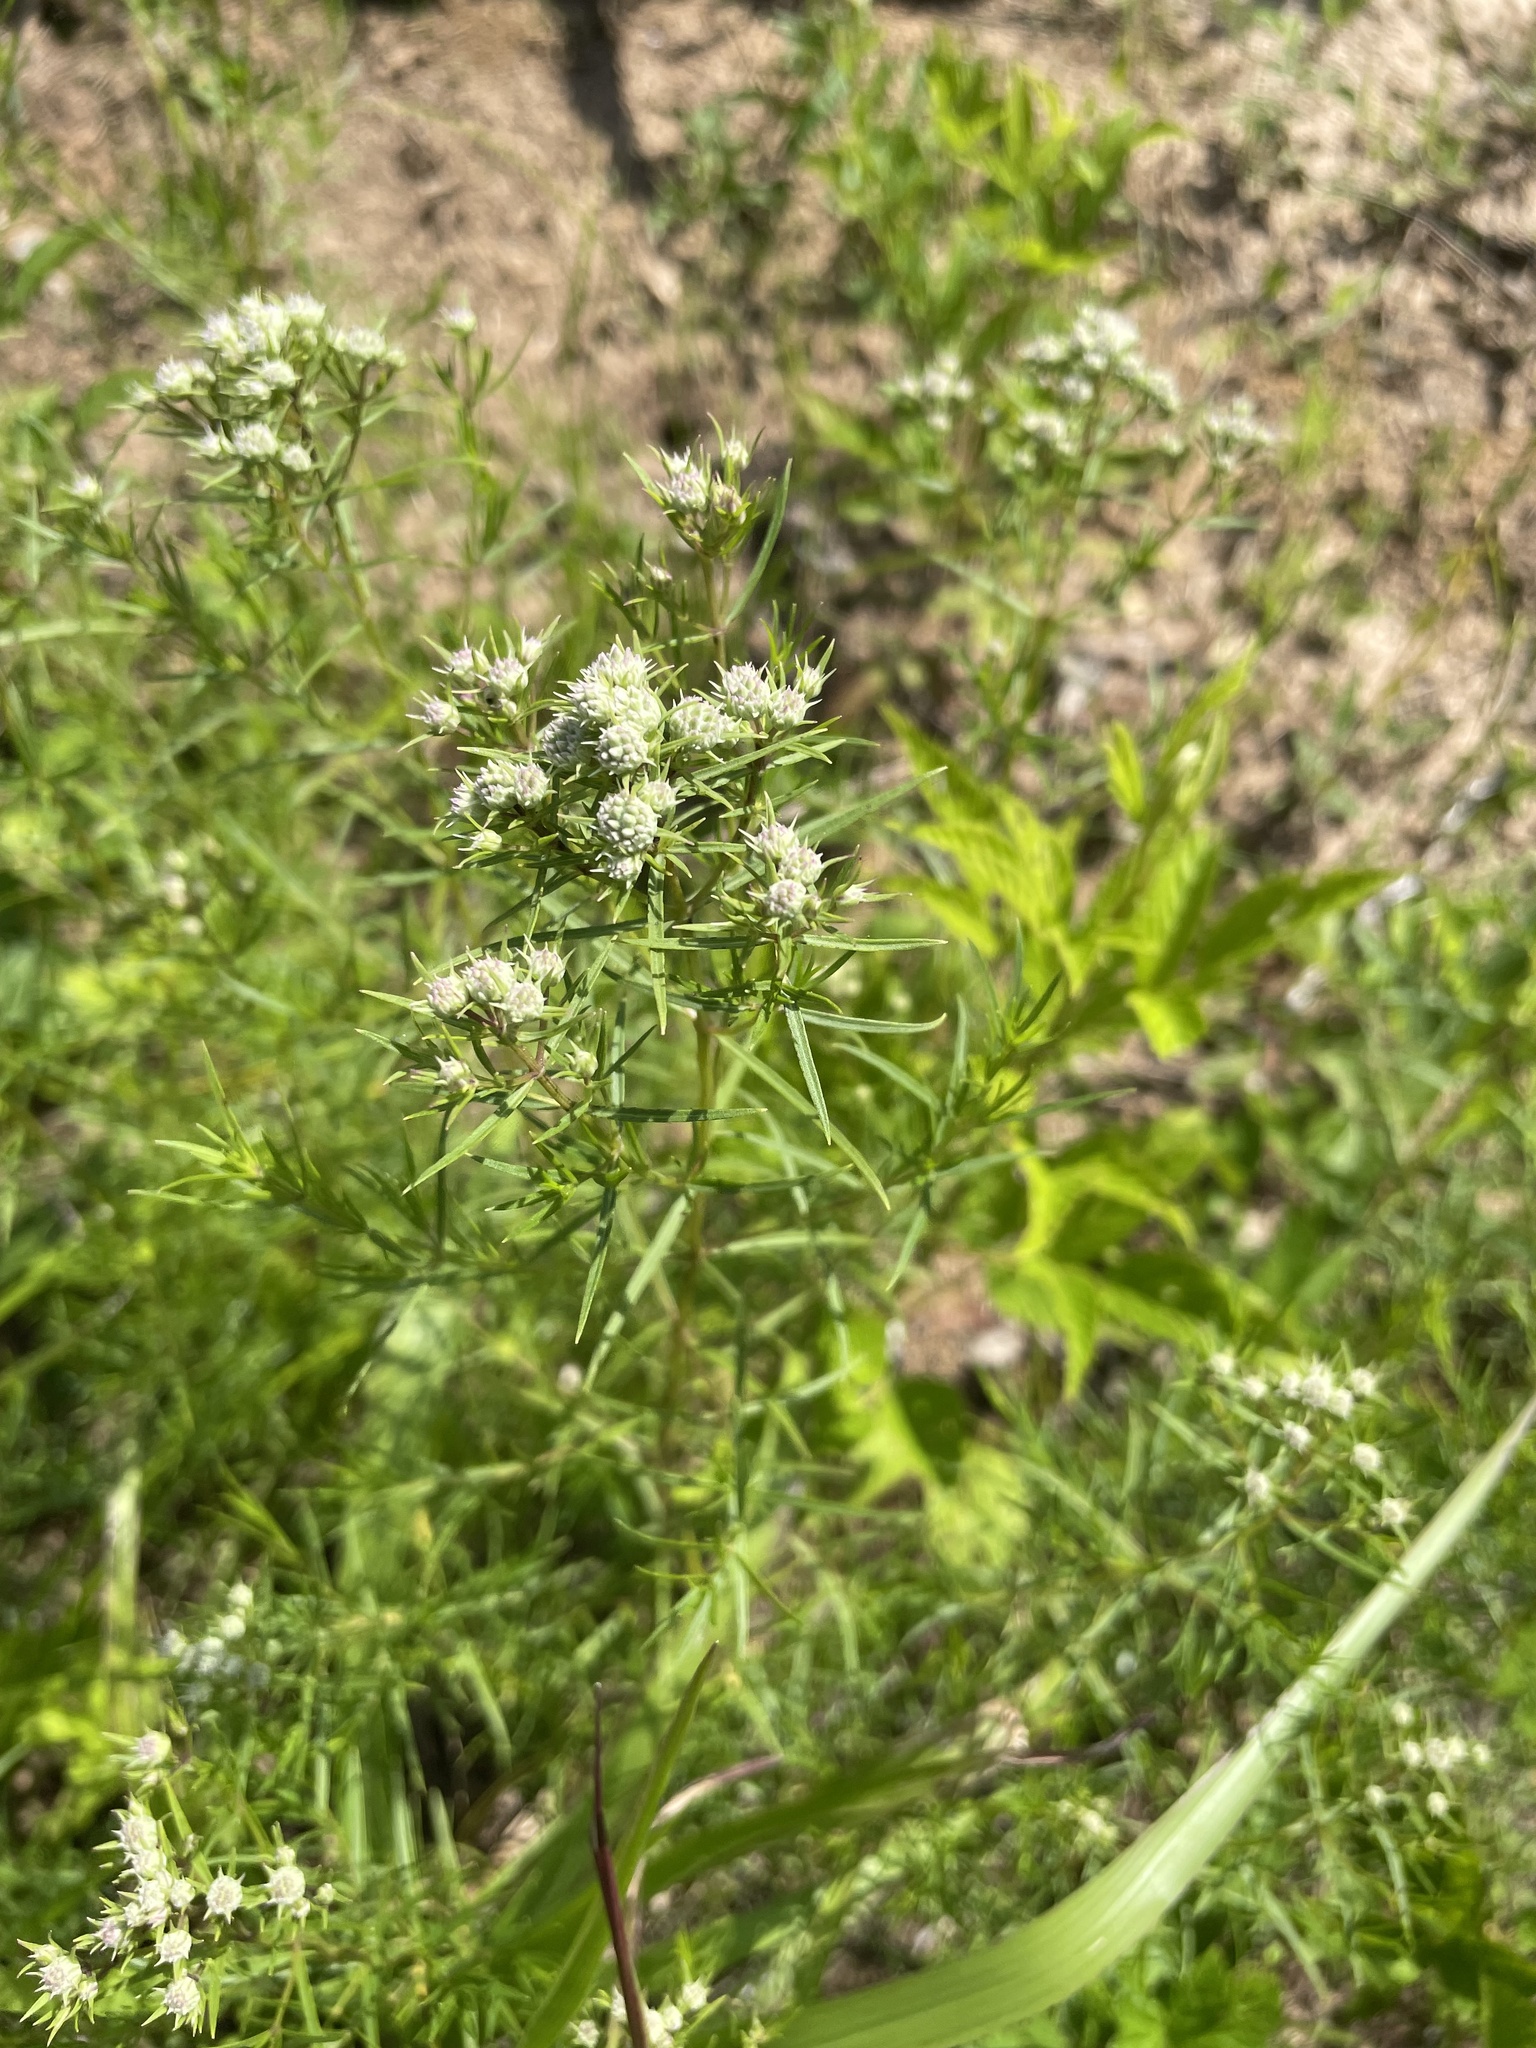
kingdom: Plantae
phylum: Tracheophyta
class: Magnoliopsida
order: Lamiales
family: Lamiaceae
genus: Pycnanthemum
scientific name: Pycnanthemum tenuifolium
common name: Narrow-leaf mountain-mint
